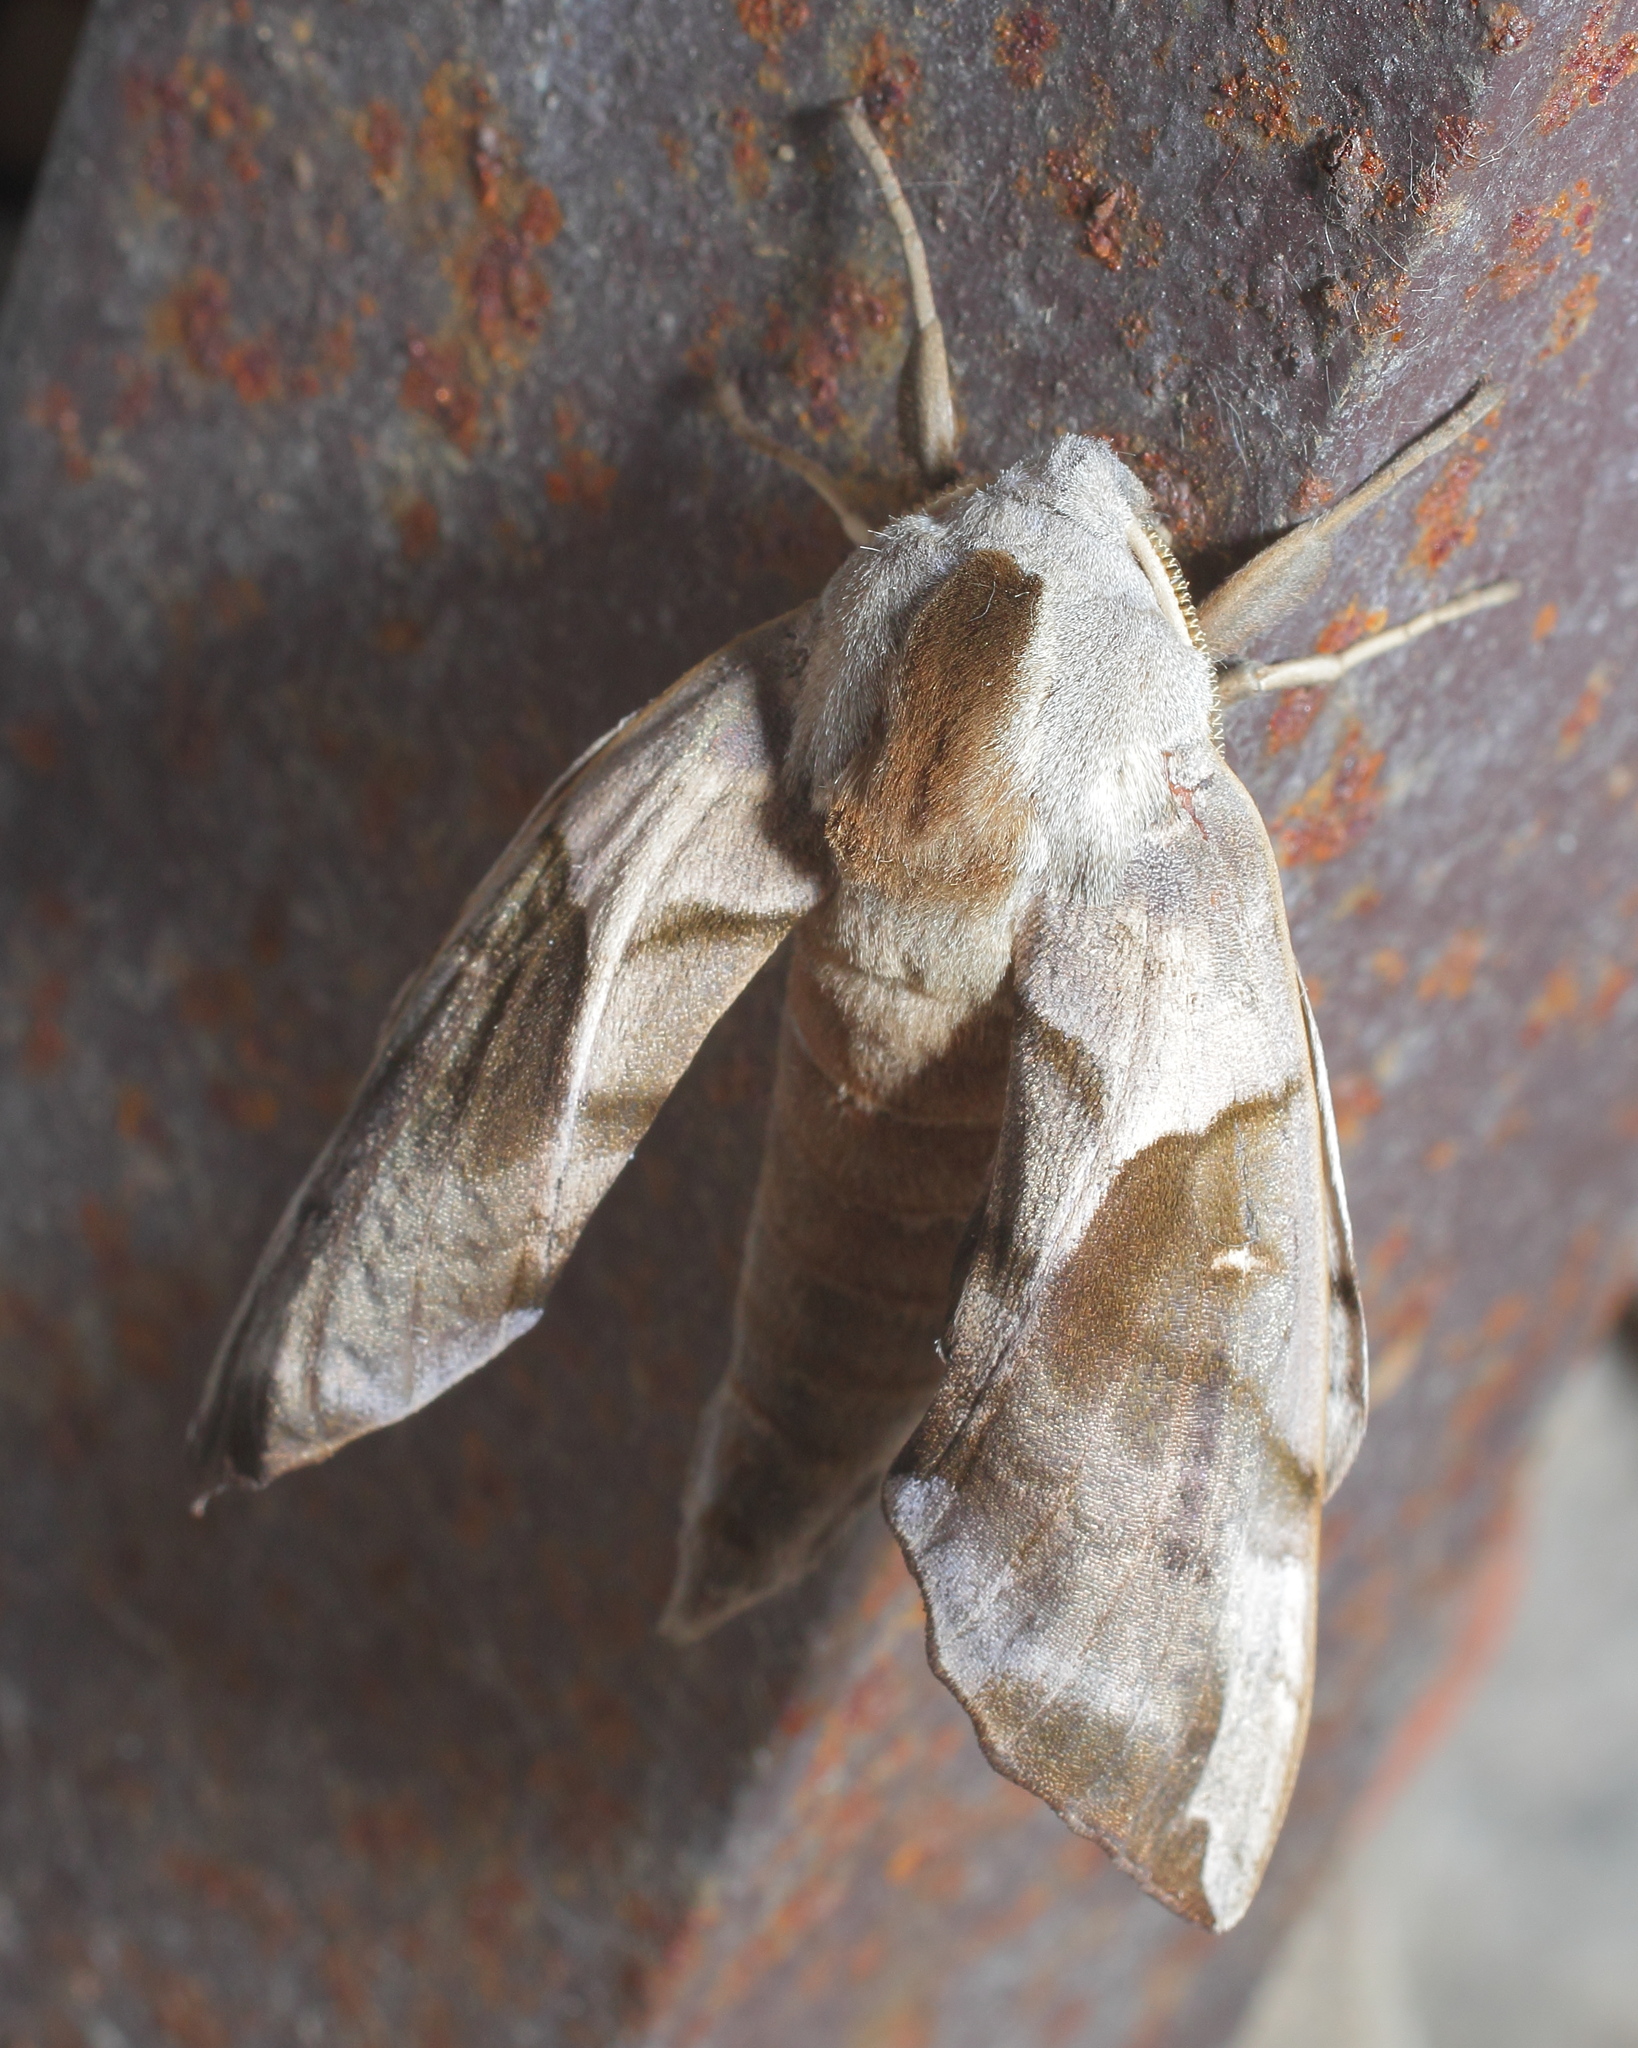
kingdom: Animalia
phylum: Arthropoda
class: Insecta
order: Lepidoptera
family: Sphingidae
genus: Smerinthus
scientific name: Smerinthus planus
